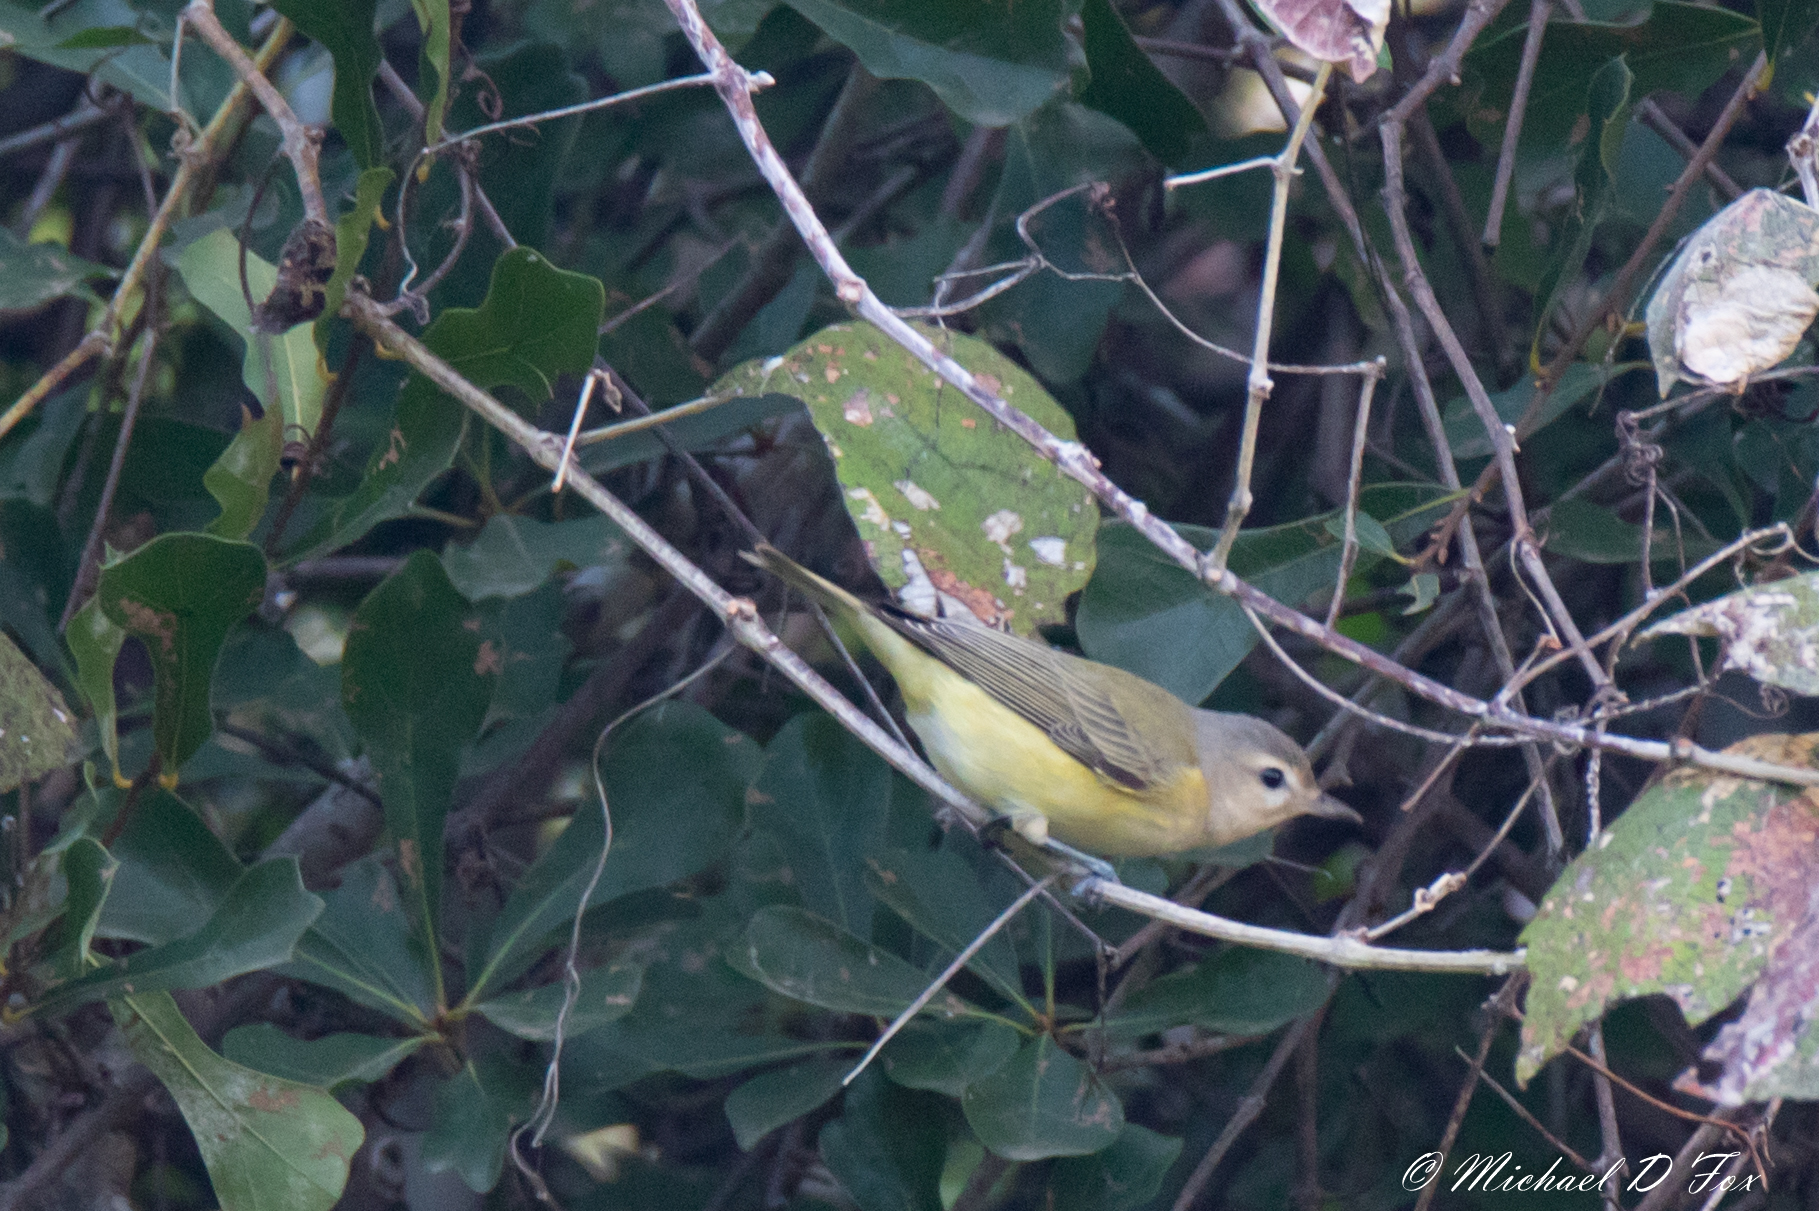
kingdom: Animalia
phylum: Chordata
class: Aves
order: Passeriformes
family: Vireonidae
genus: Vireo
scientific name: Vireo gilvus
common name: Warbling vireo
